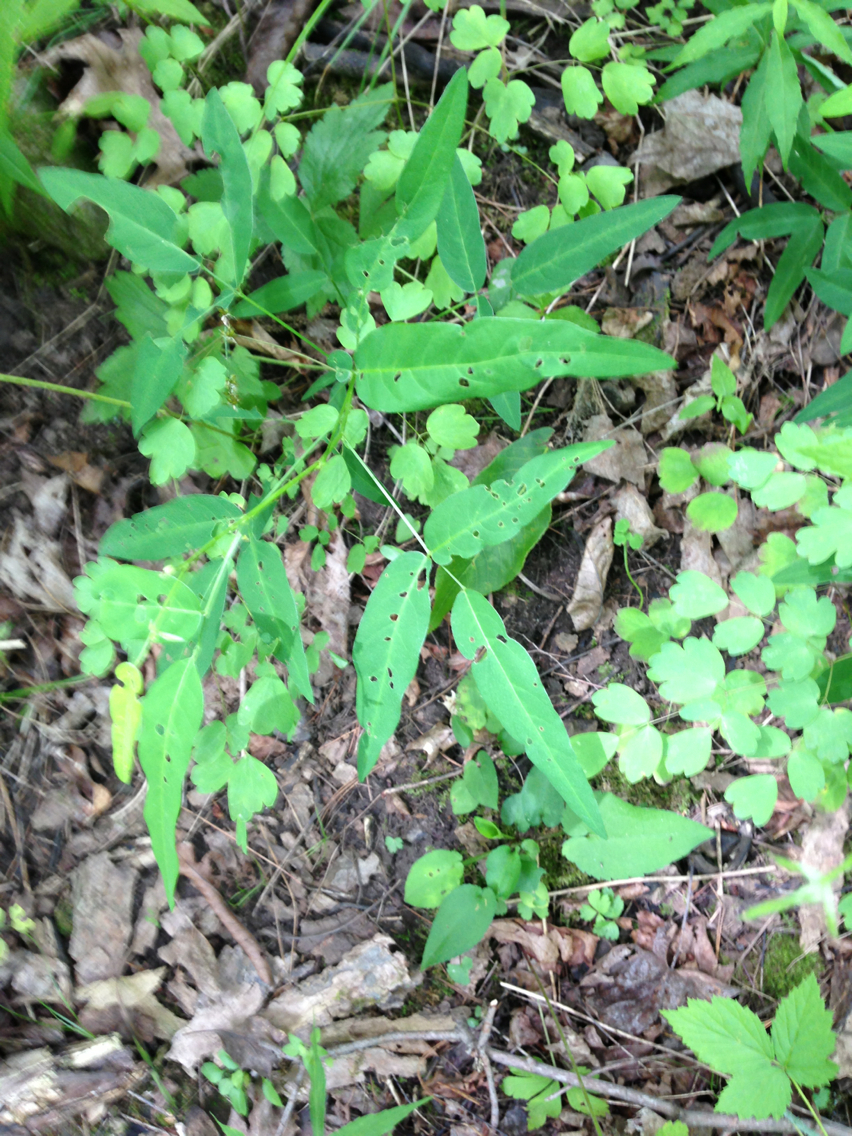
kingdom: Plantae
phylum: Tracheophyta
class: Magnoliopsida
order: Fabales
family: Fabaceae
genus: Desmodium
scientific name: Desmodium paniculatum
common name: Panicled tick-clover
